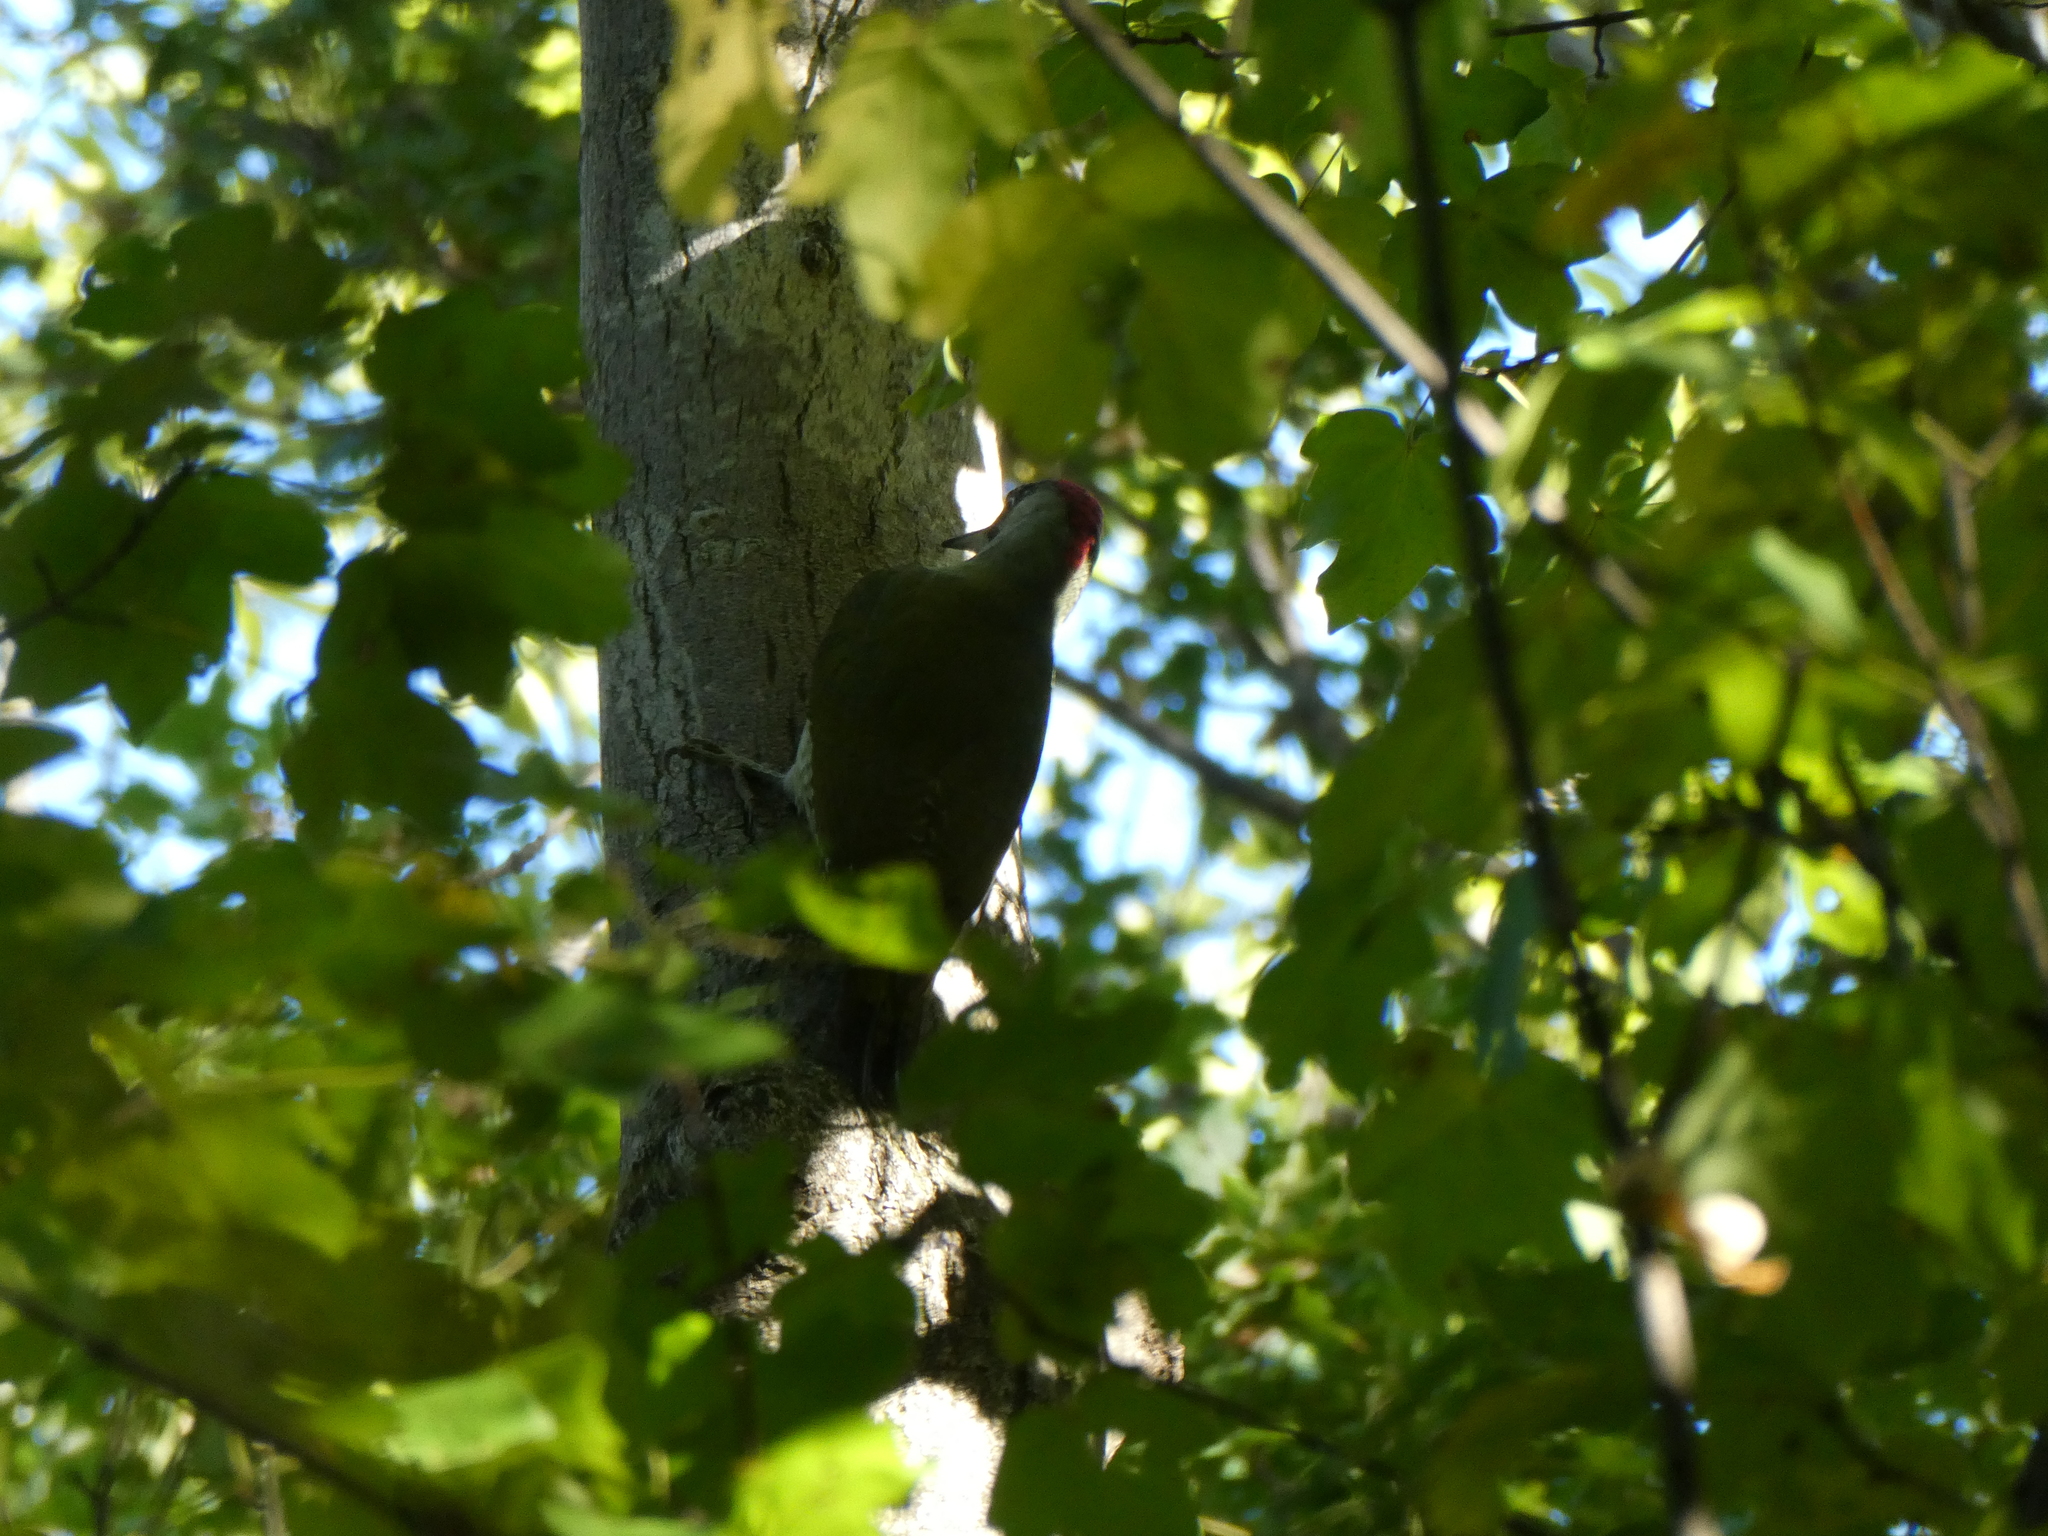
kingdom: Animalia
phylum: Chordata
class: Aves
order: Piciformes
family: Picidae
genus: Picus
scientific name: Picus viridis
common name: European green woodpecker
